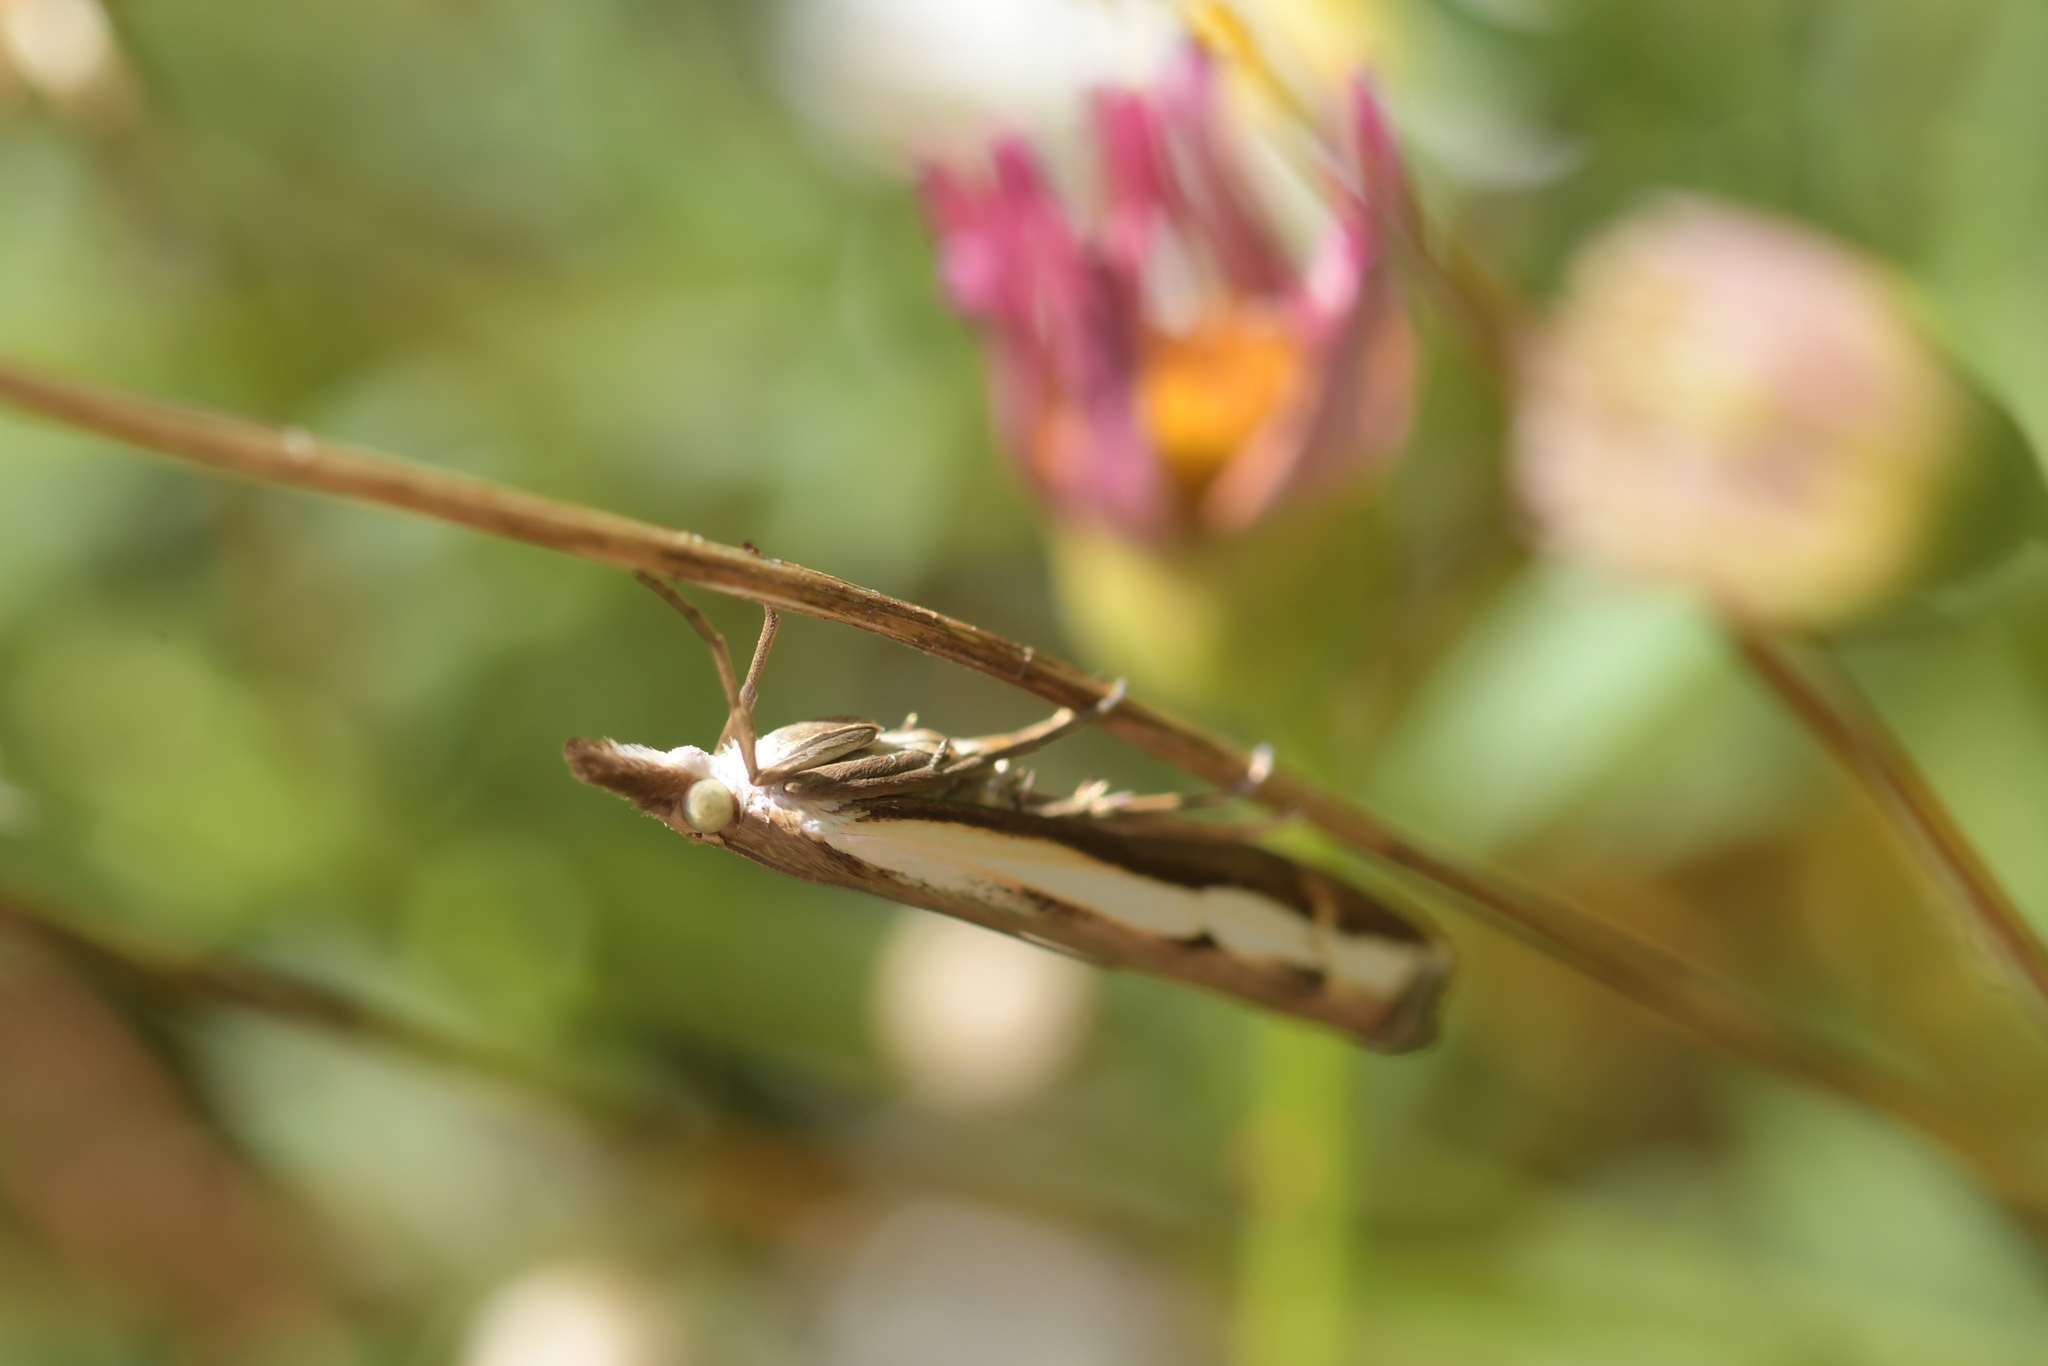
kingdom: Animalia
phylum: Arthropoda
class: Insecta
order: Lepidoptera
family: Crambidae
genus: Orocrambus
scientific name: Orocrambus flexuosellus
